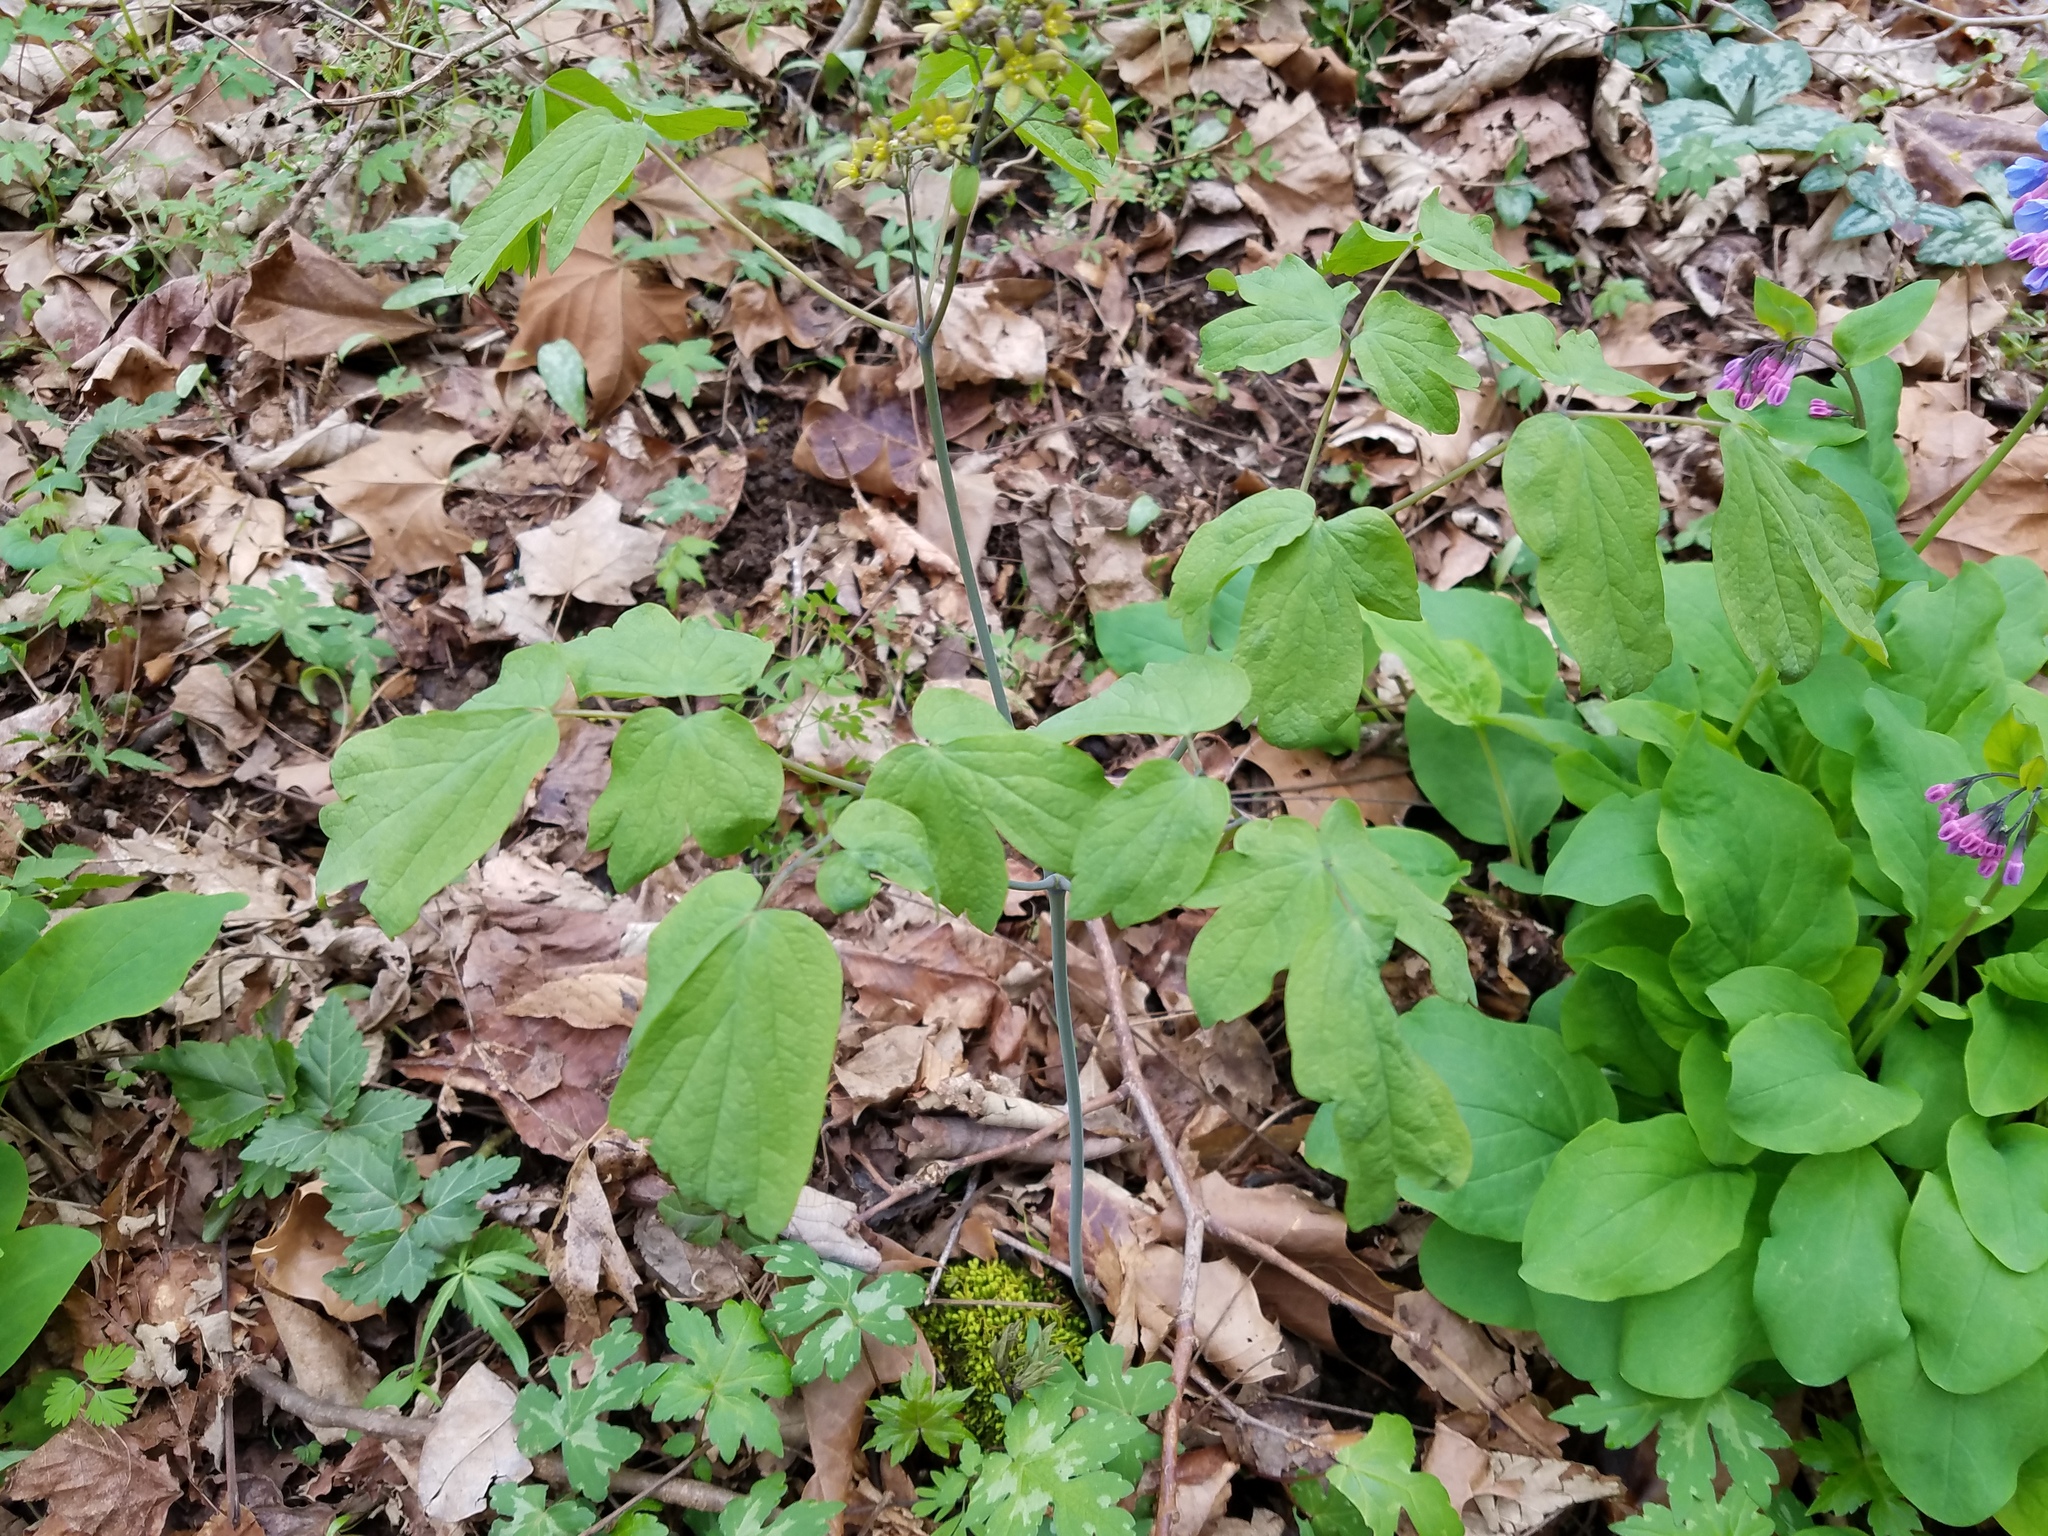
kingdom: Plantae
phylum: Tracheophyta
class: Magnoliopsida
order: Ranunculales
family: Berberidaceae
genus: Caulophyllum
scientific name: Caulophyllum thalictroides
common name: Blue cohosh
